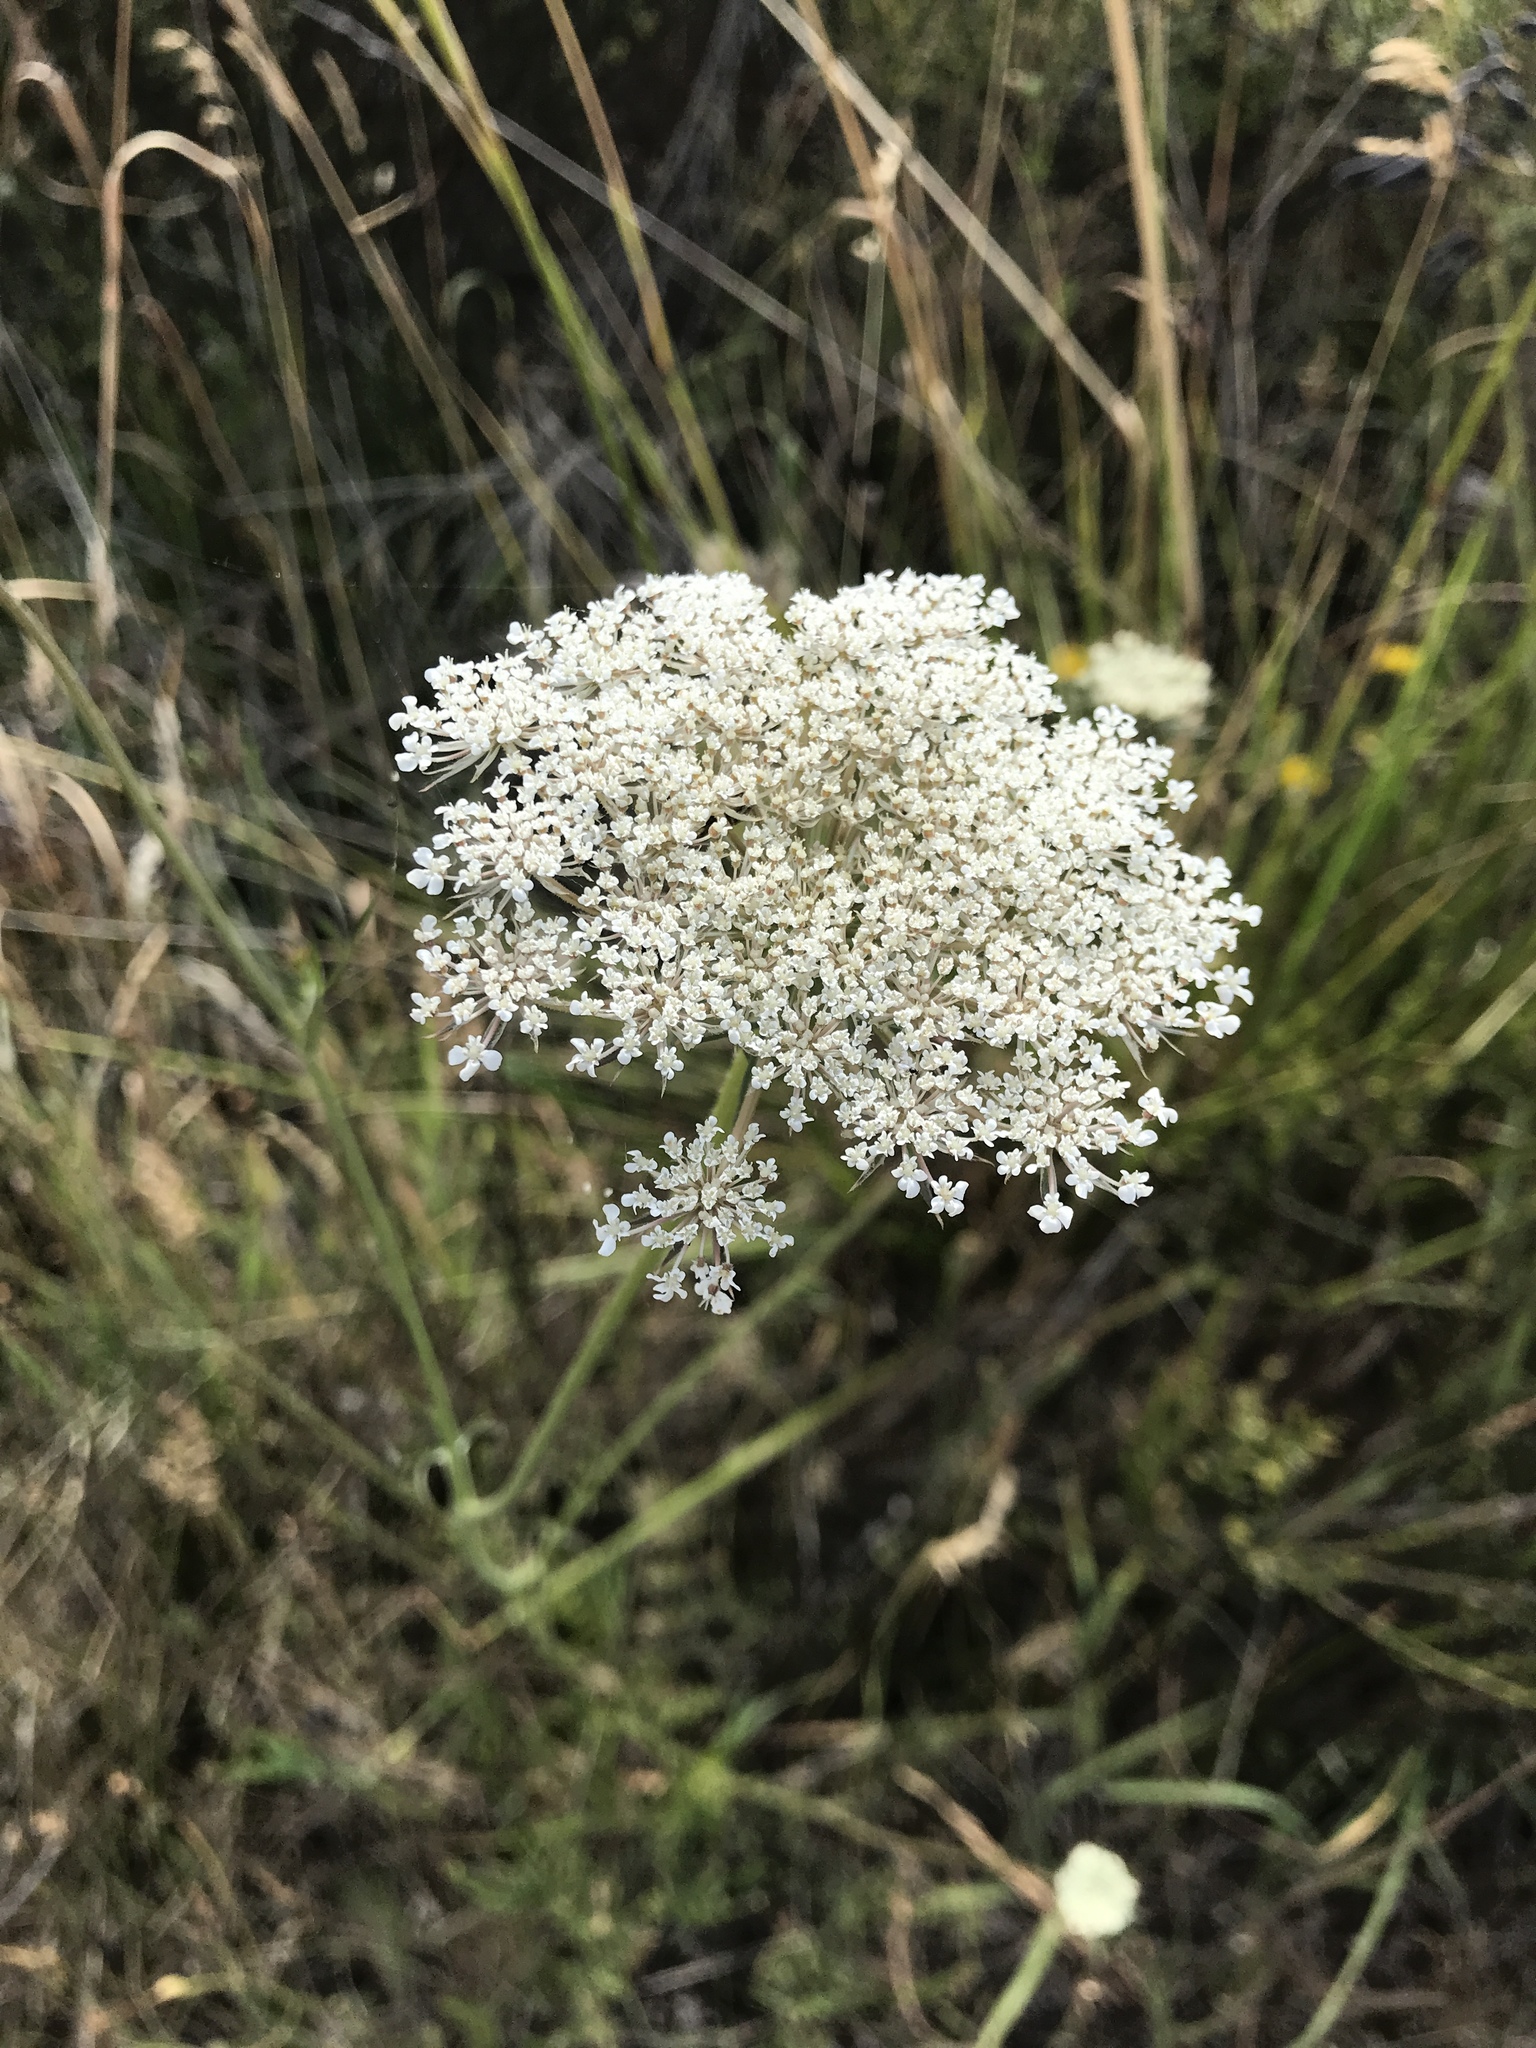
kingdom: Plantae
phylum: Tracheophyta
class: Magnoliopsida
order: Apiales
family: Apiaceae
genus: Daucus
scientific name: Daucus carota
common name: Wild carrot
